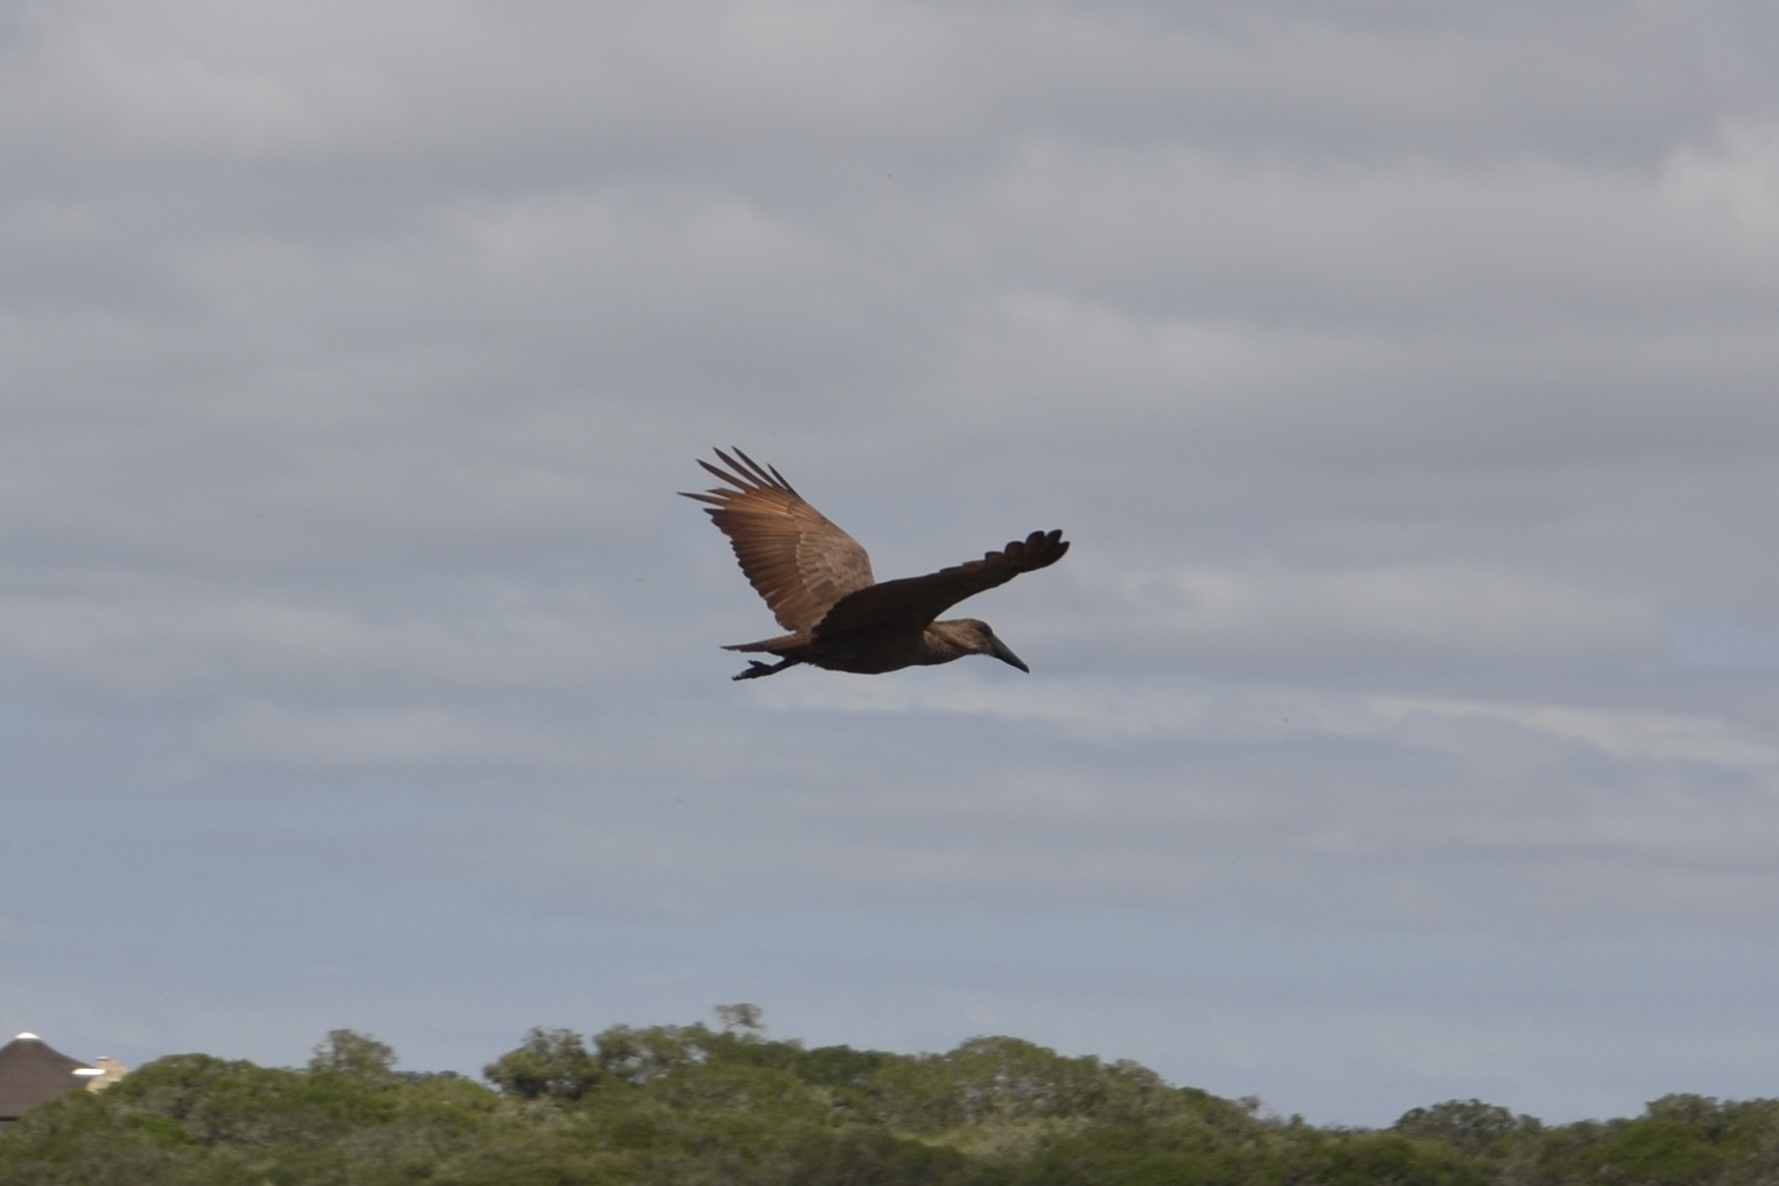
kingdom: Animalia
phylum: Chordata
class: Aves
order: Pelecaniformes
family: Scopidae
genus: Scopus
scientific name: Scopus umbretta
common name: Hamerkop
